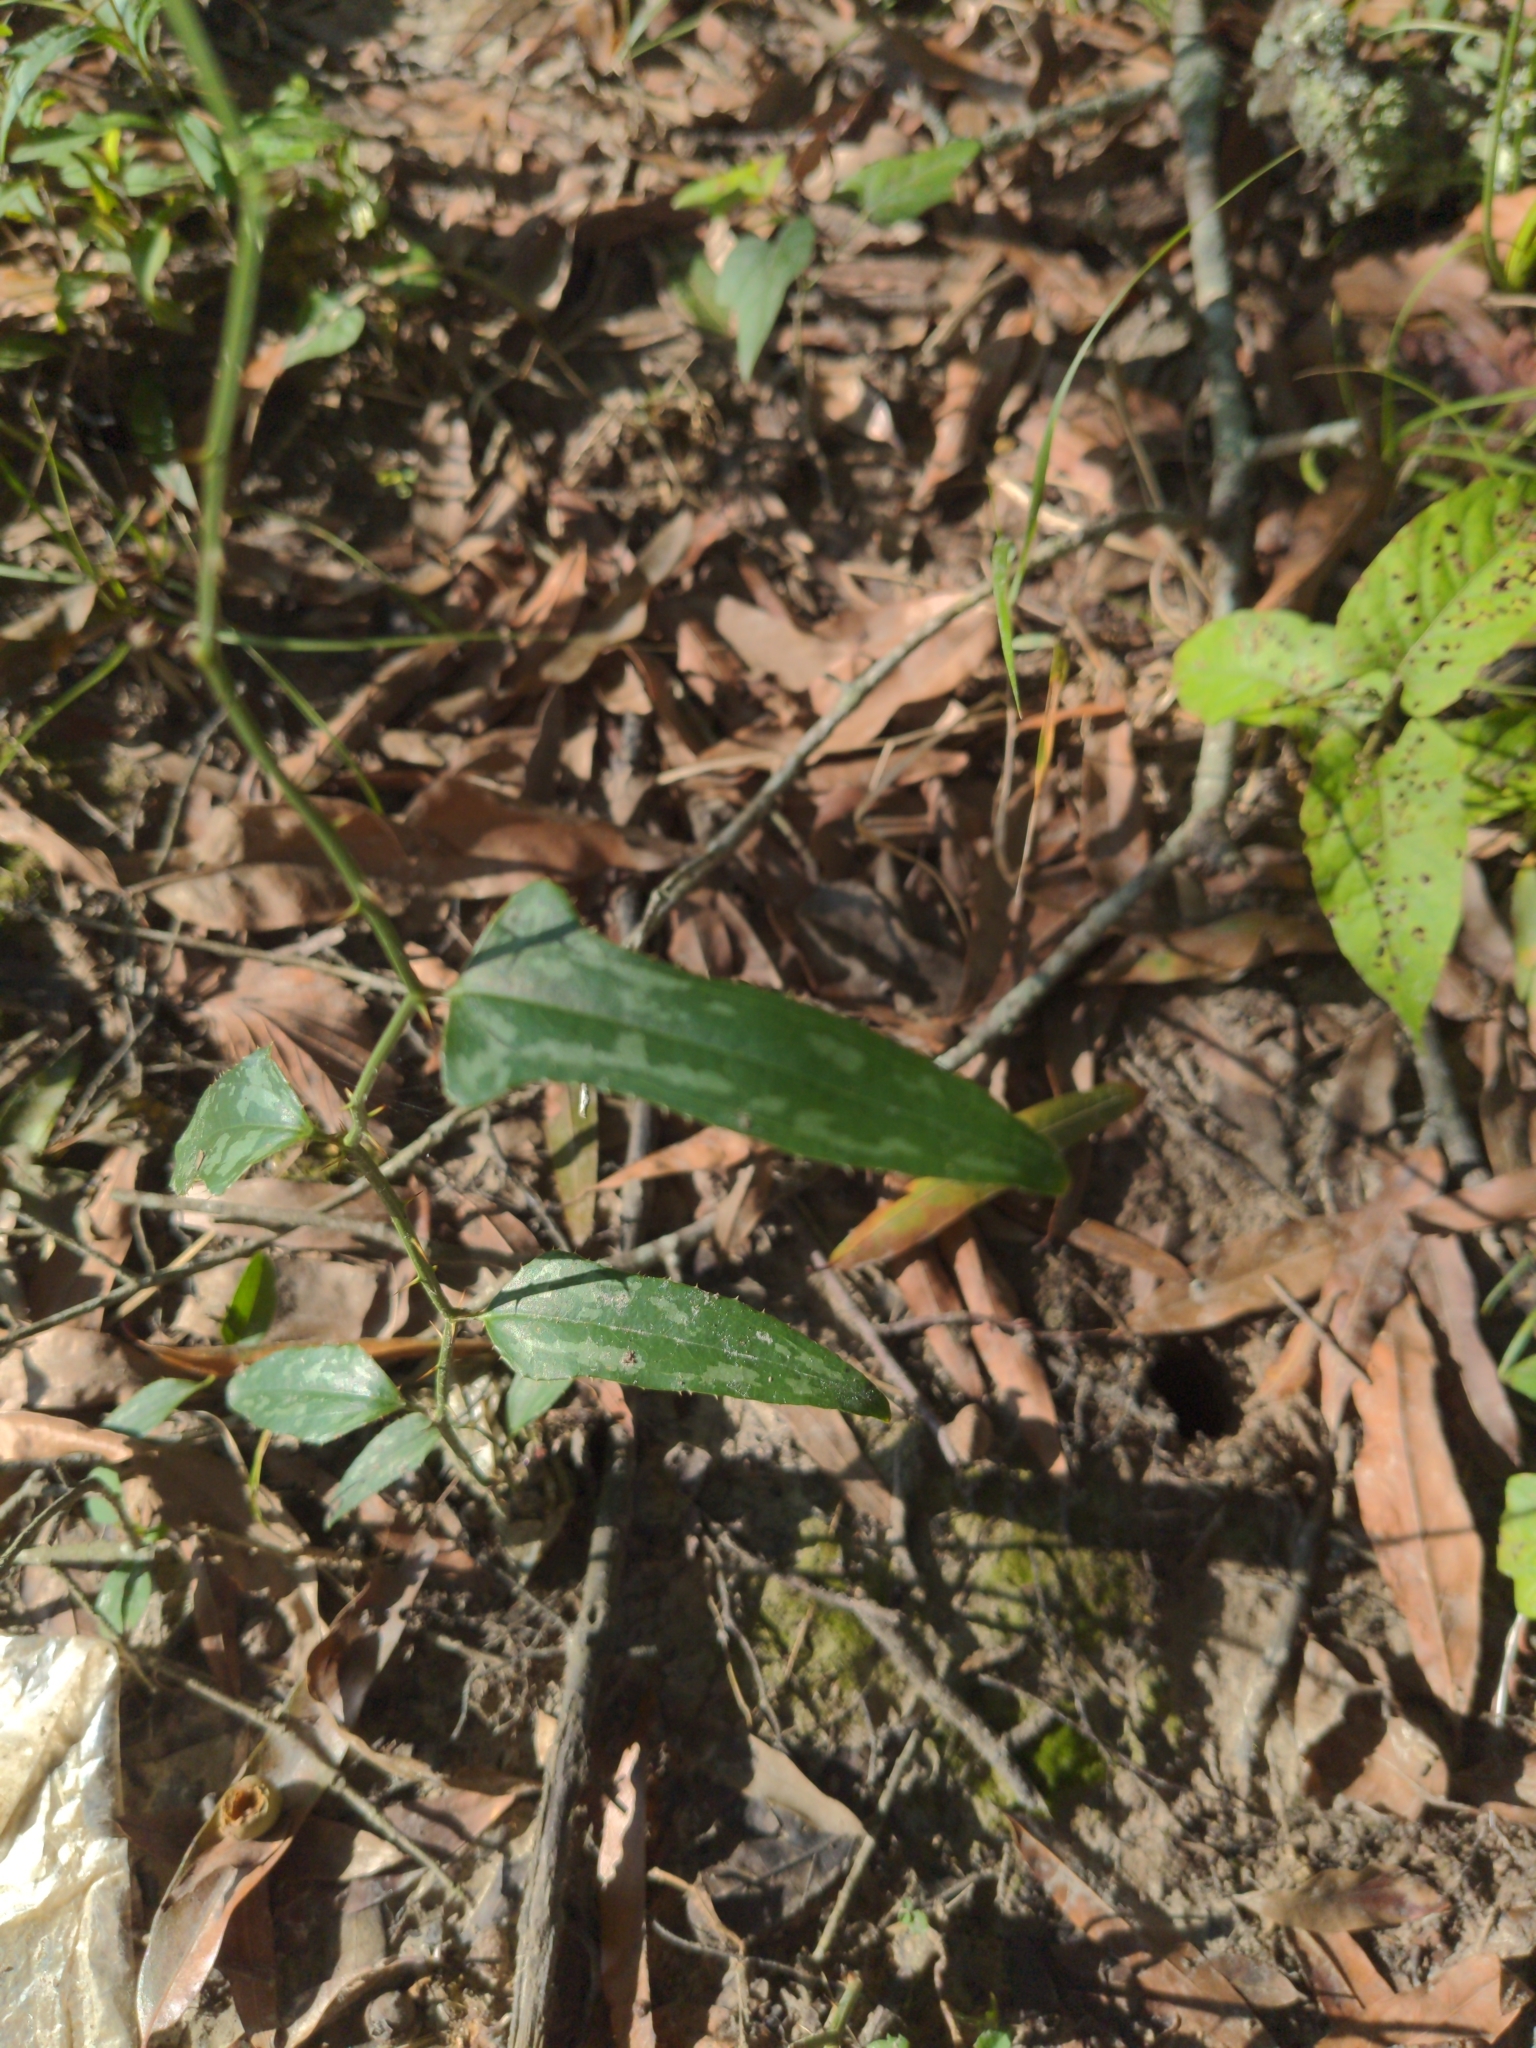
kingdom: Plantae
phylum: Tracheophyta
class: Liliopsida
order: Liliales
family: Smilacaceae
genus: Smilax
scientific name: Smilax bona-nox
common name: Catbrier
